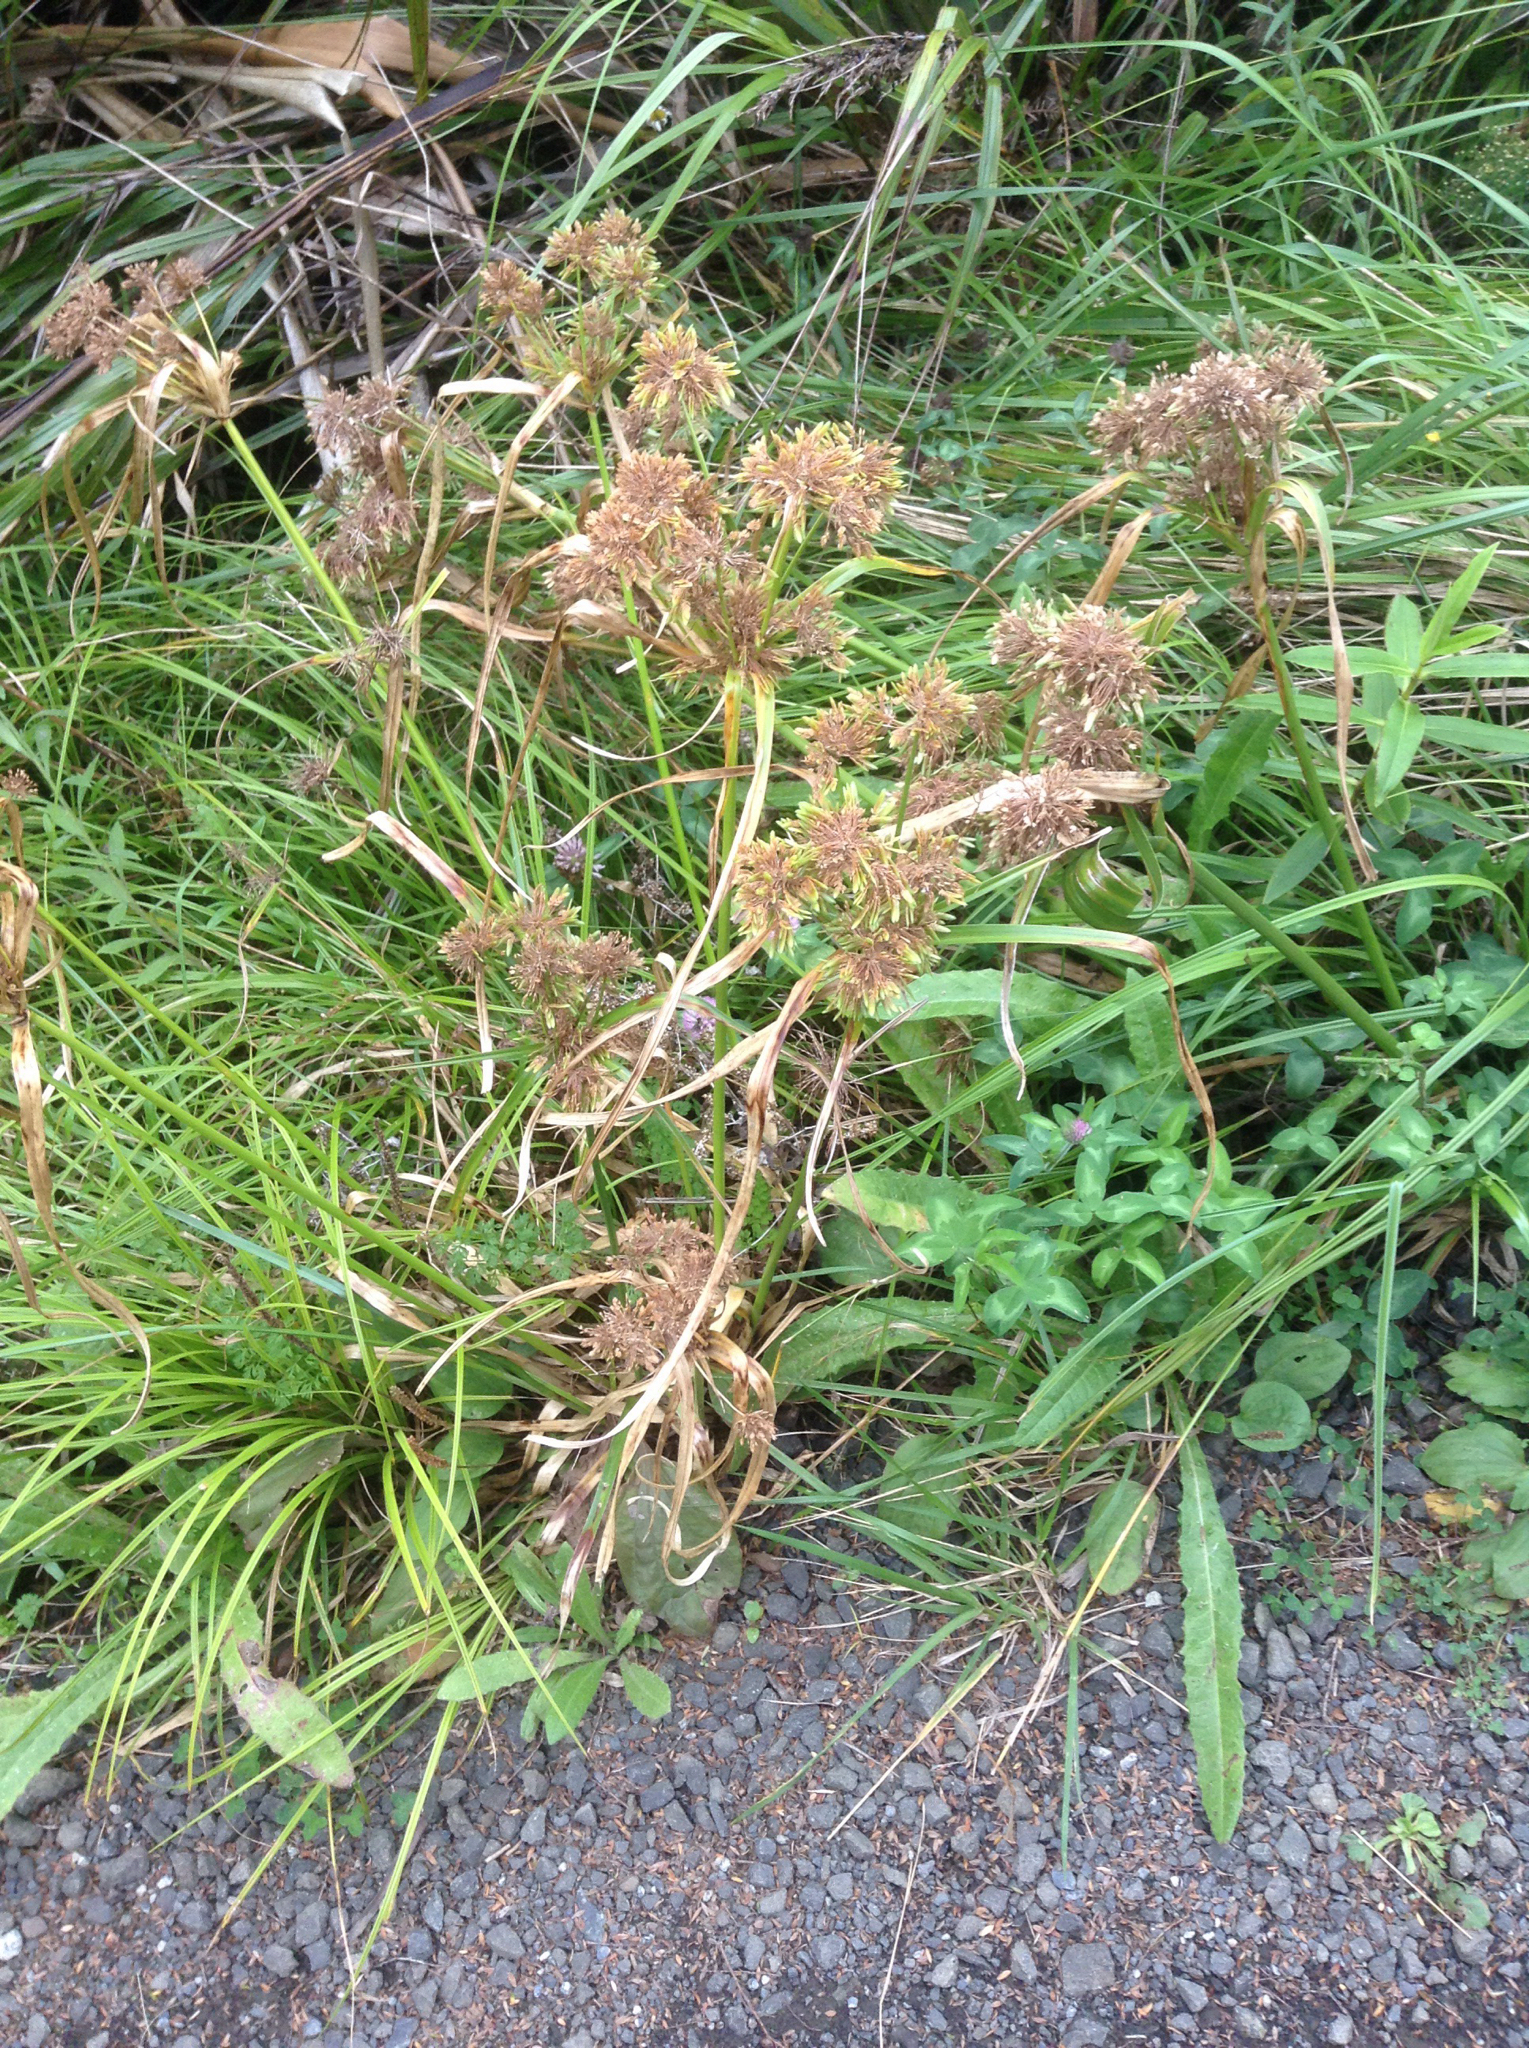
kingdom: Plantae
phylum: Tracheophyta
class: Liliopsida
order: Poales
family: Cyperaceae
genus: Cyperus
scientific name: Cyperus eragrostis
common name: Tall flatsedge
